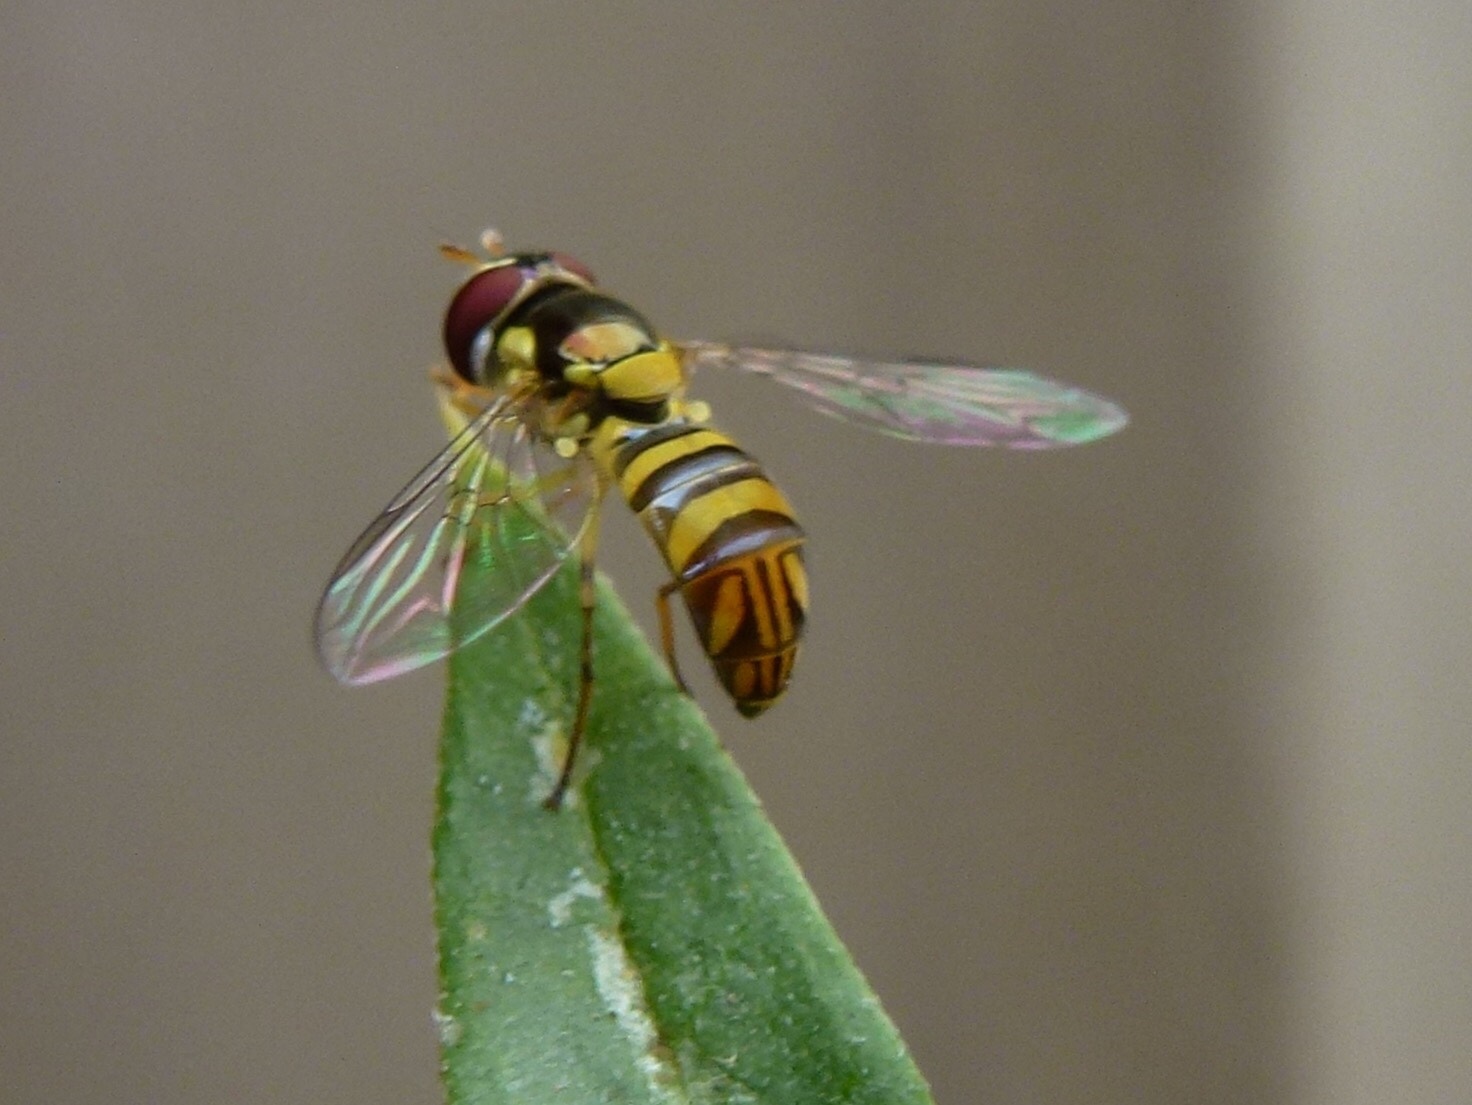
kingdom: Animalia
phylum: Arthropoda
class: Insecta
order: Diptera
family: Syrphidae
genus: Allograpta
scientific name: Allograpta obliqua
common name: Common oblique syrphid
